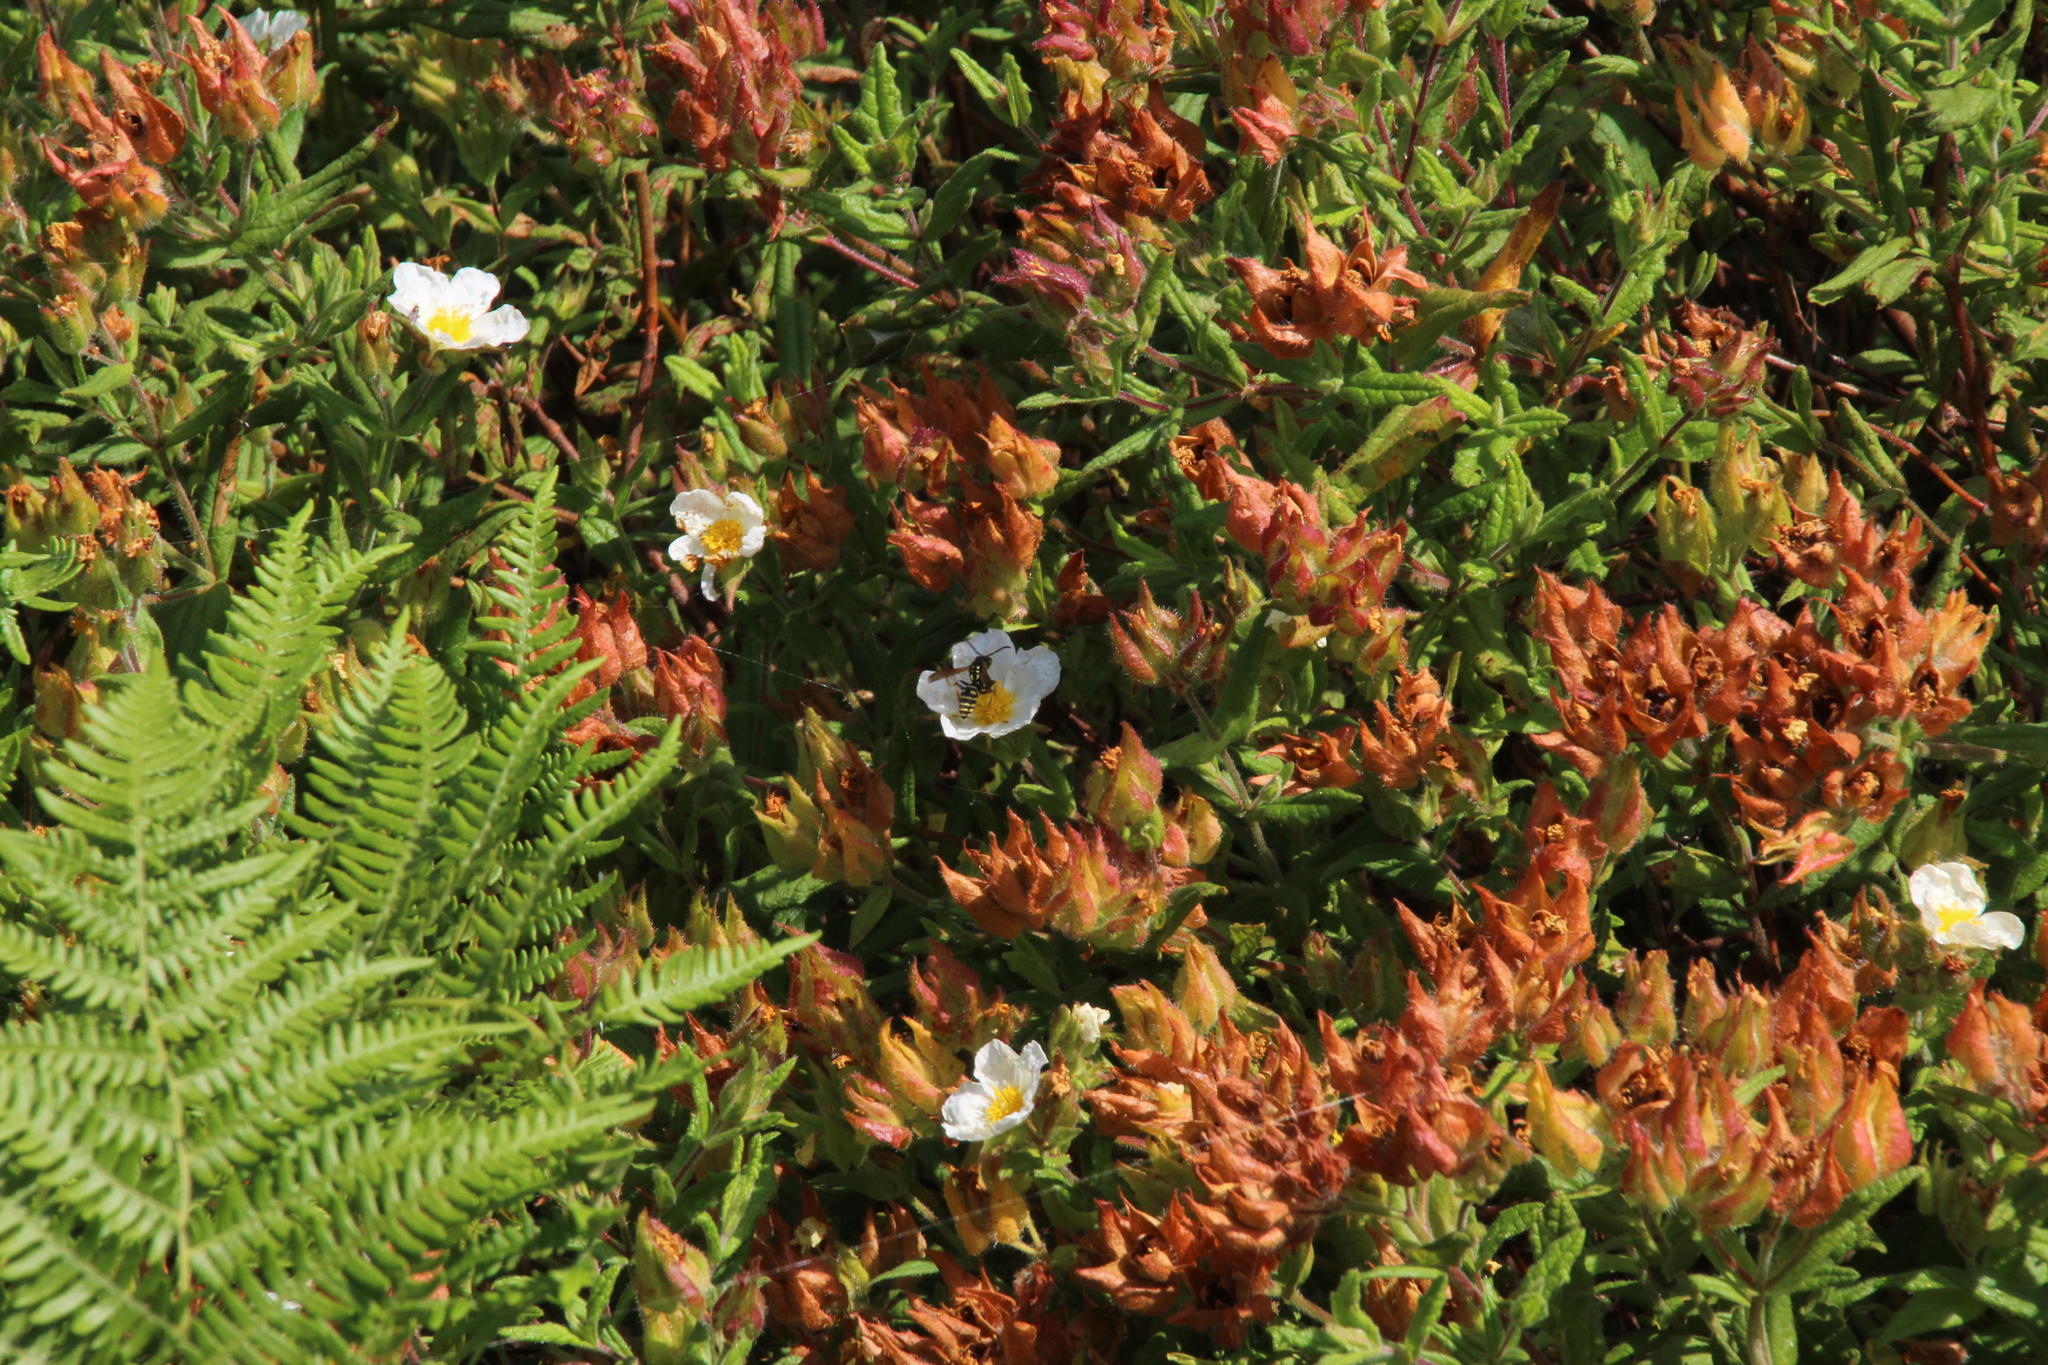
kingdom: Plantae
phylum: Tracheophyta
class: Magnoliopsida
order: Malvales
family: Cistaceae
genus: Cistus
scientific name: Cistus inflatus
